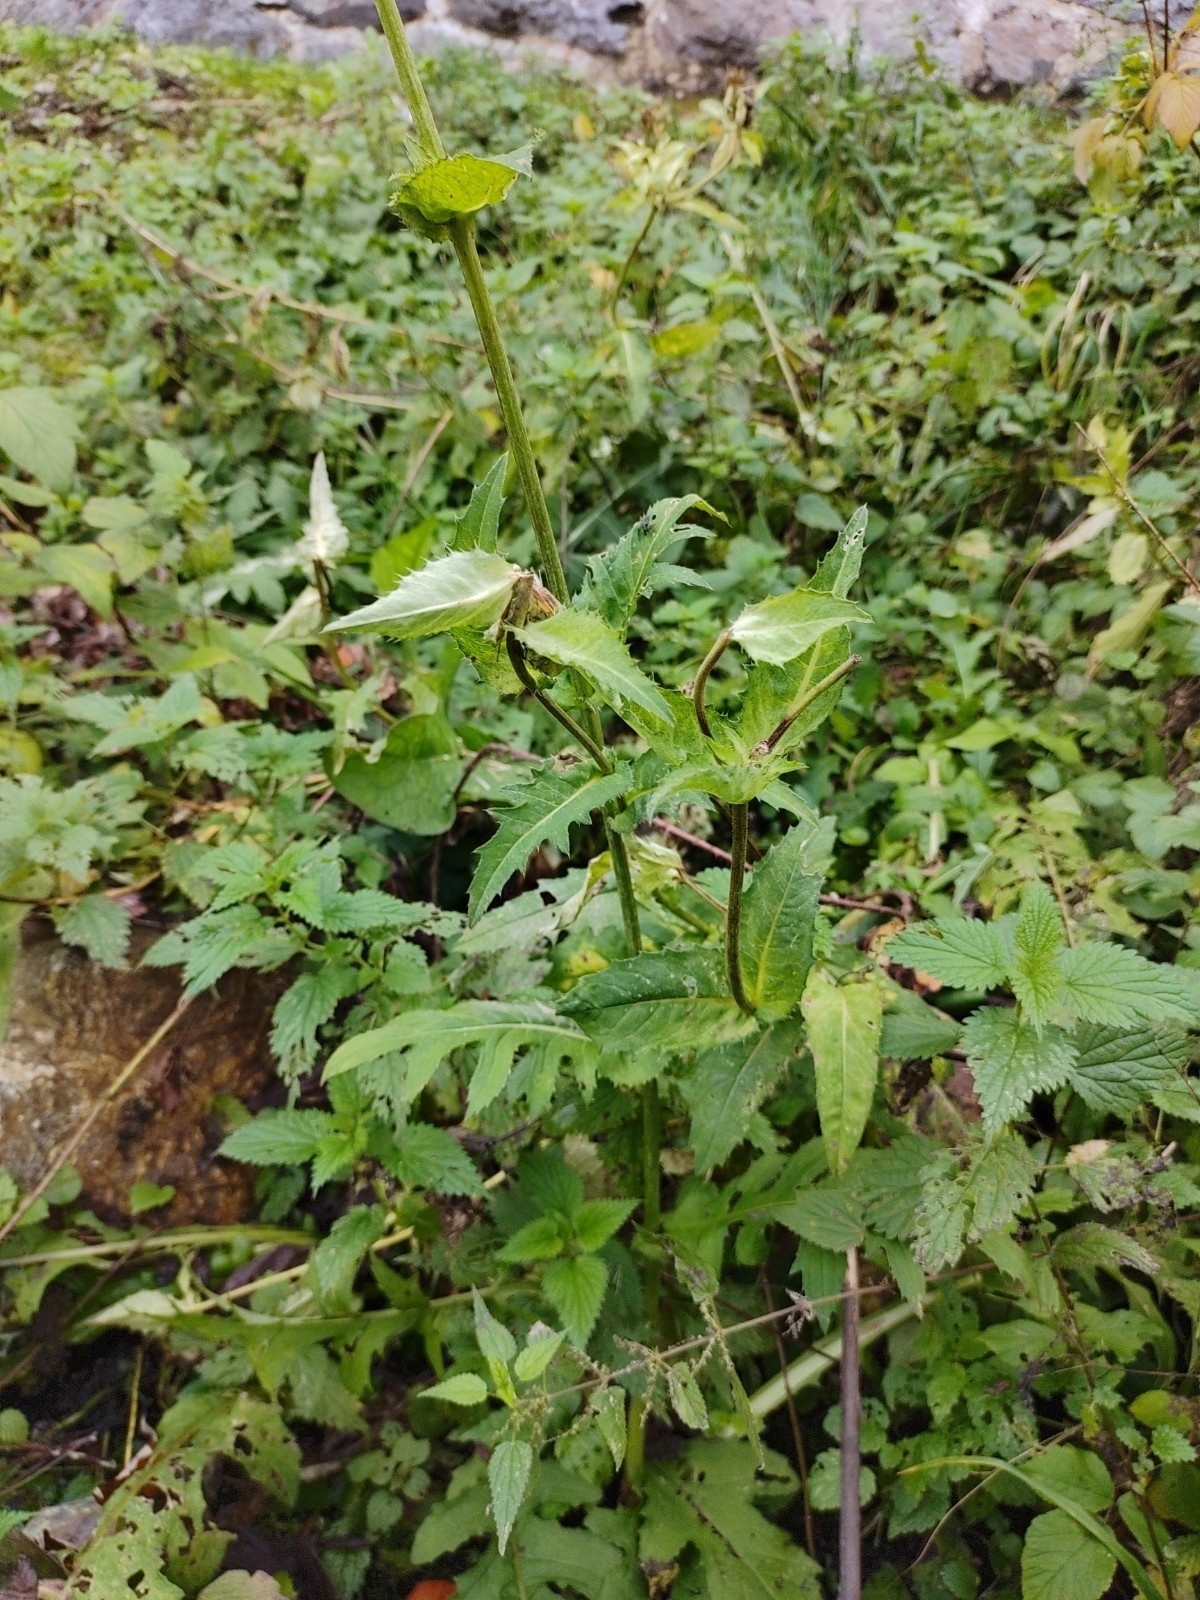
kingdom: Plantae
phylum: Tracheophyta
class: Magnoliopsida
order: Asterales
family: Asteraceae
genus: Cirsium
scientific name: Cirsium oleraceum
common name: Cabbage thistle
